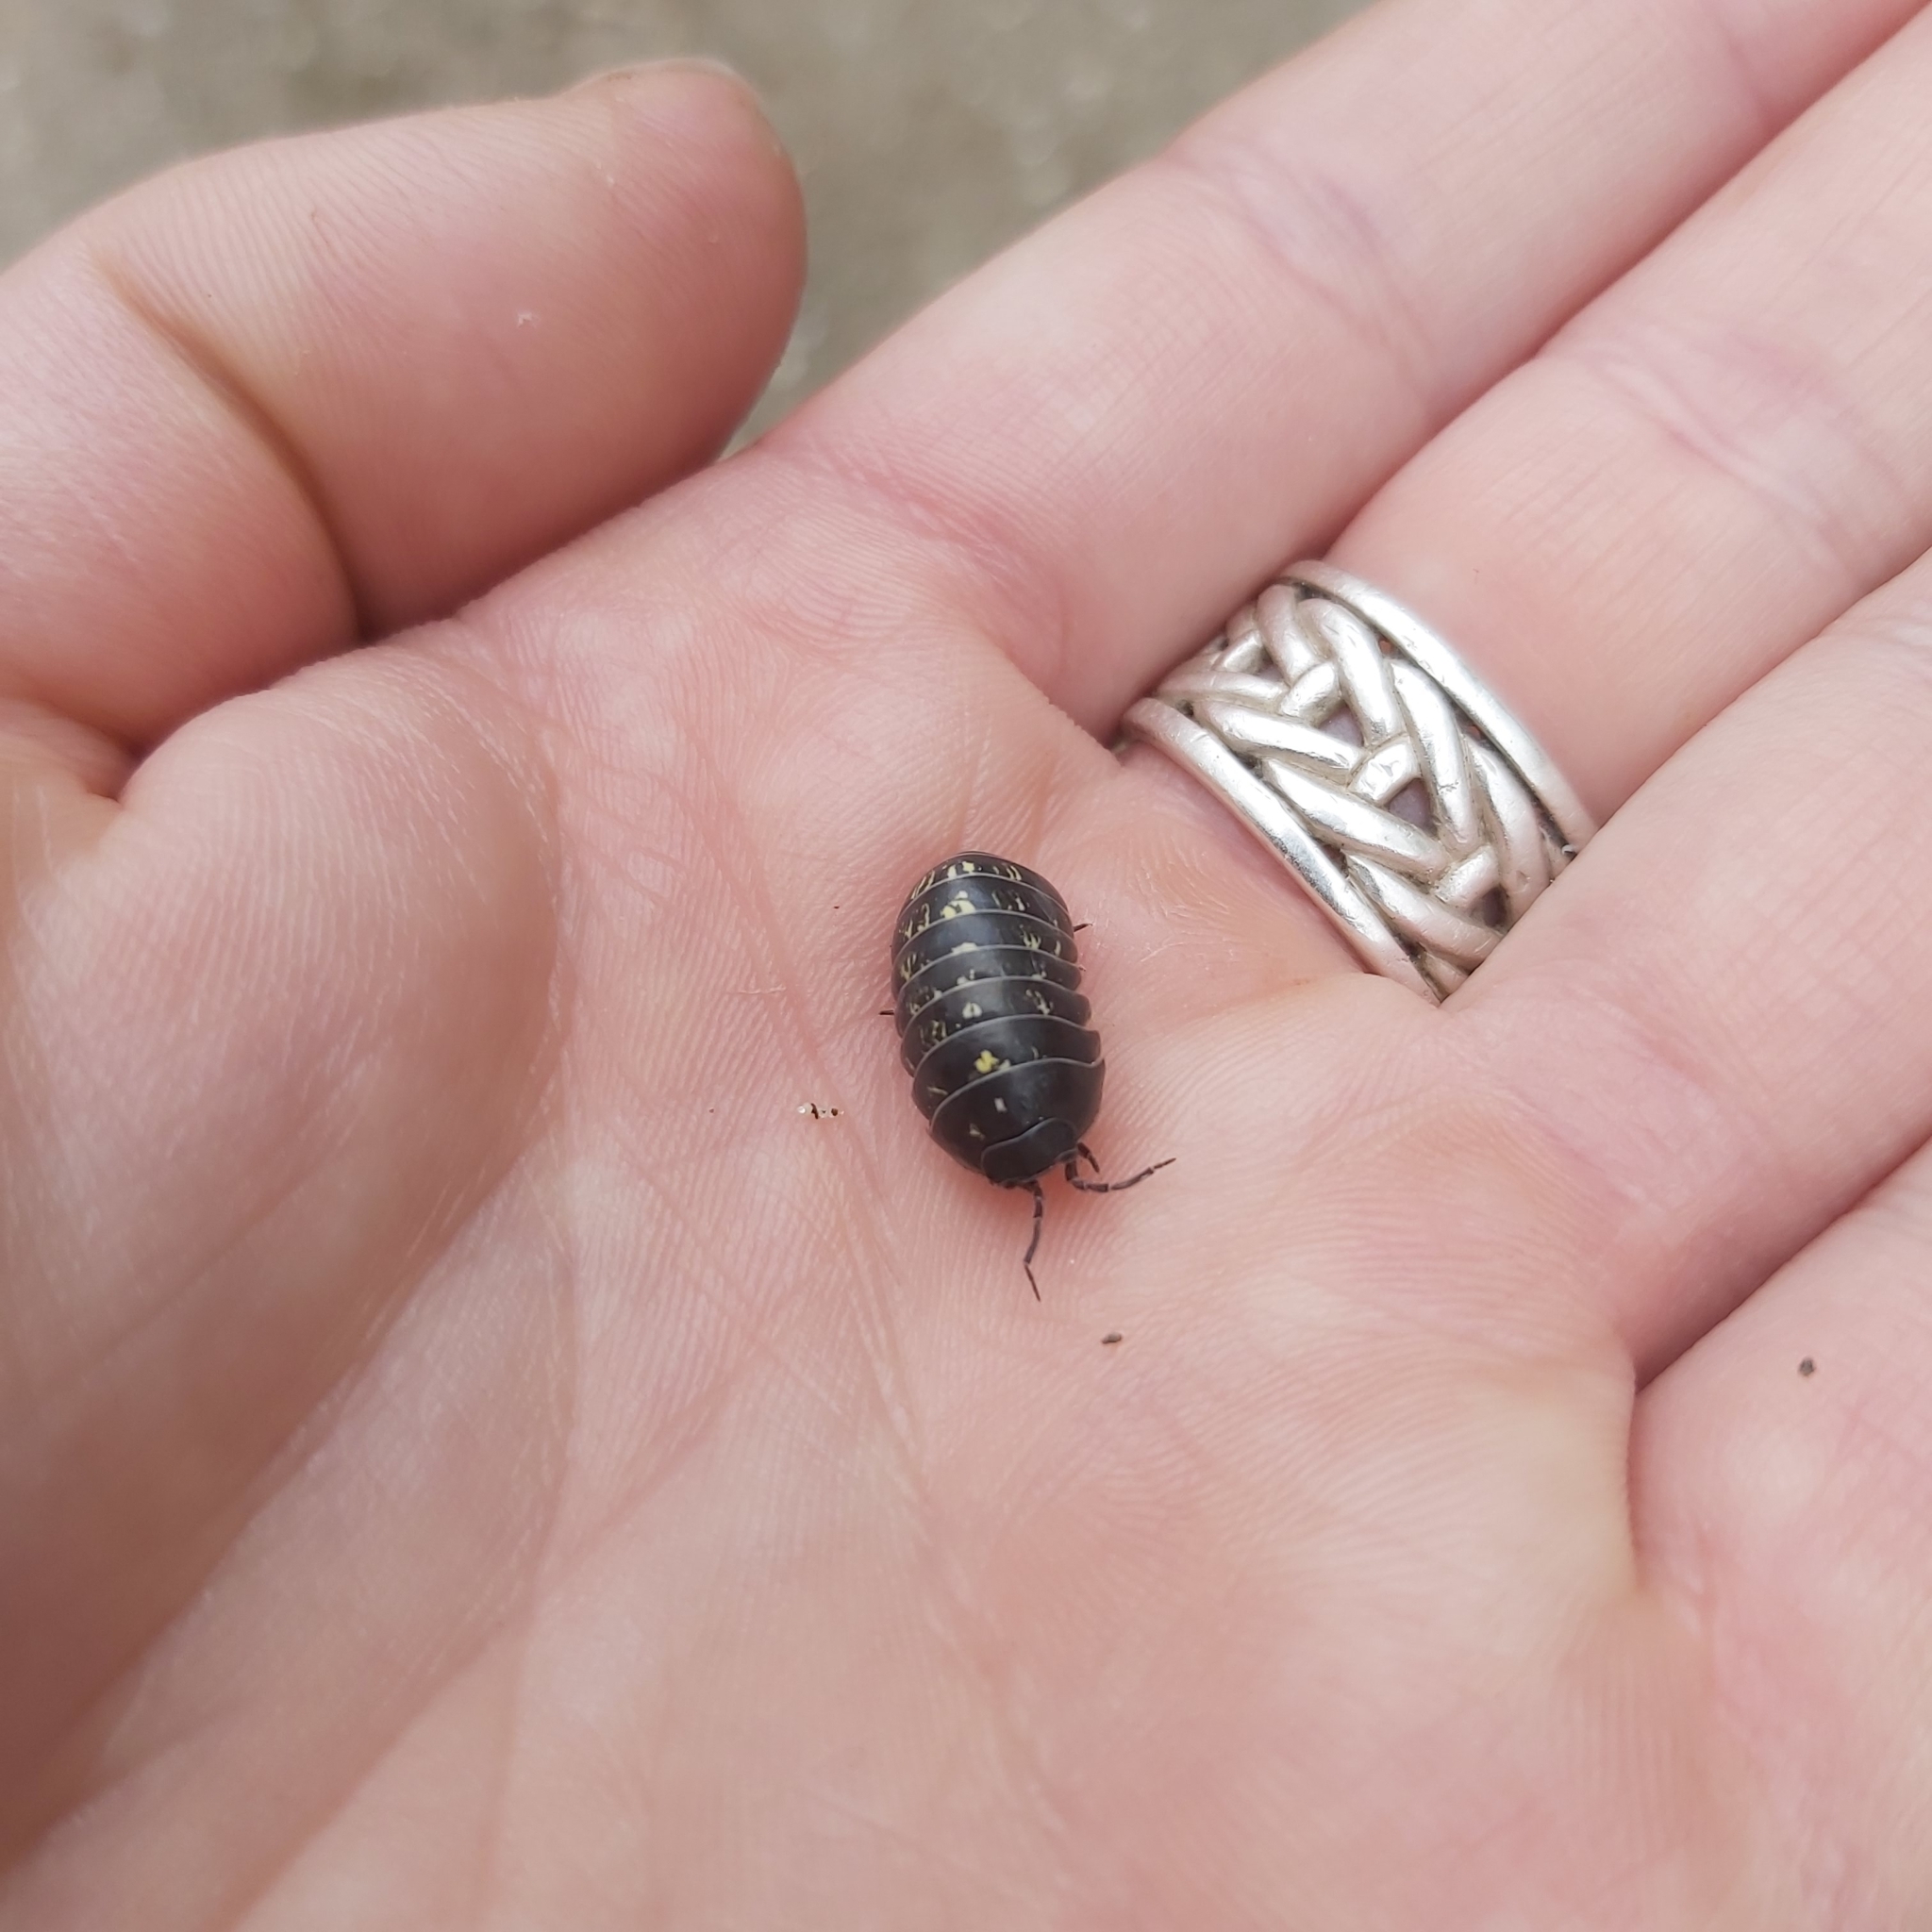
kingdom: Animalia
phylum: Arthropoda
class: Malacostraca
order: Isopoda
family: Armadillidiidae
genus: Armadillidium
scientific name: Armadillidium vulgare
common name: Common pill woodlouse
